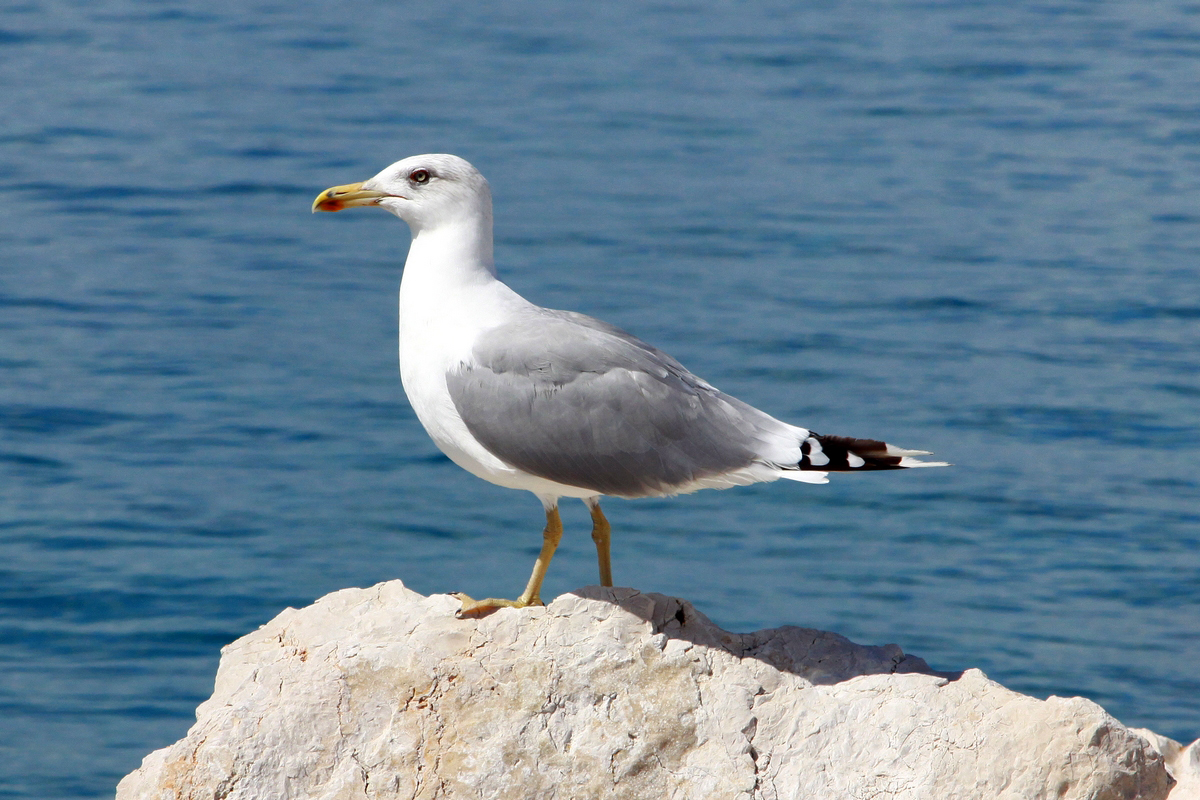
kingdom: Animalia
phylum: Chordata
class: Aves
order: Charadriiformes
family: Laridae
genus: Larus
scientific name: Larus michahellis
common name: Yellow-legged gull
